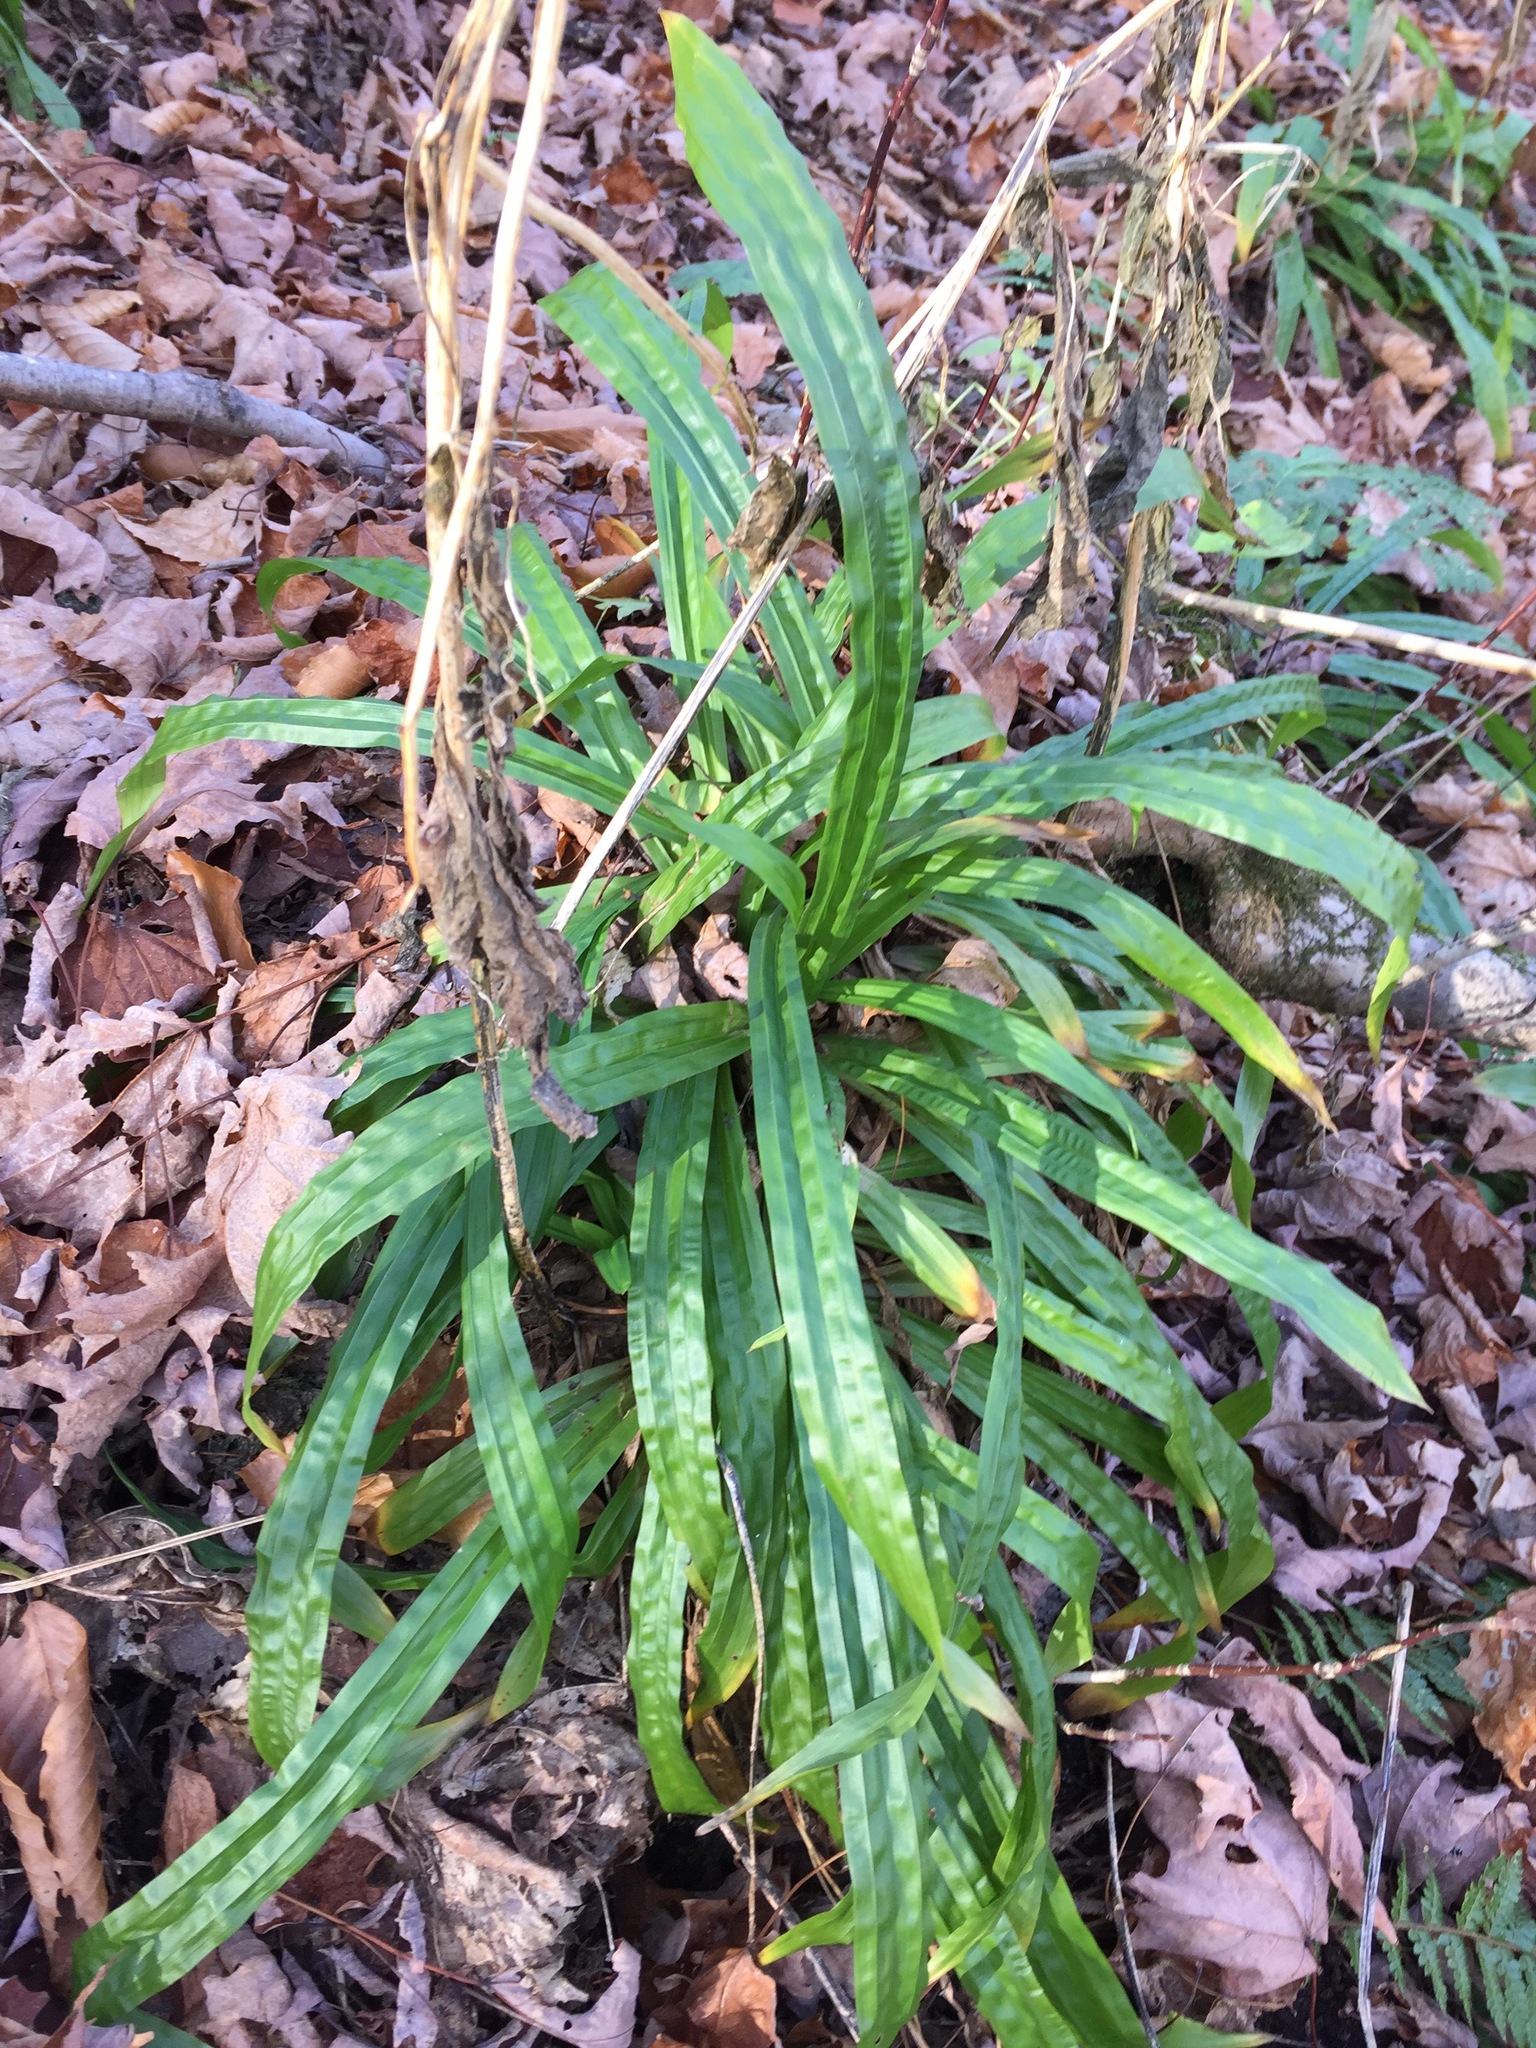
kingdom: Plantae
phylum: Tracheophyta
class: Liliopsida
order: Poales
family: Cyperaceae
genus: Carex
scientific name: Carex plantaginea
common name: Plantain-leaved sedge
